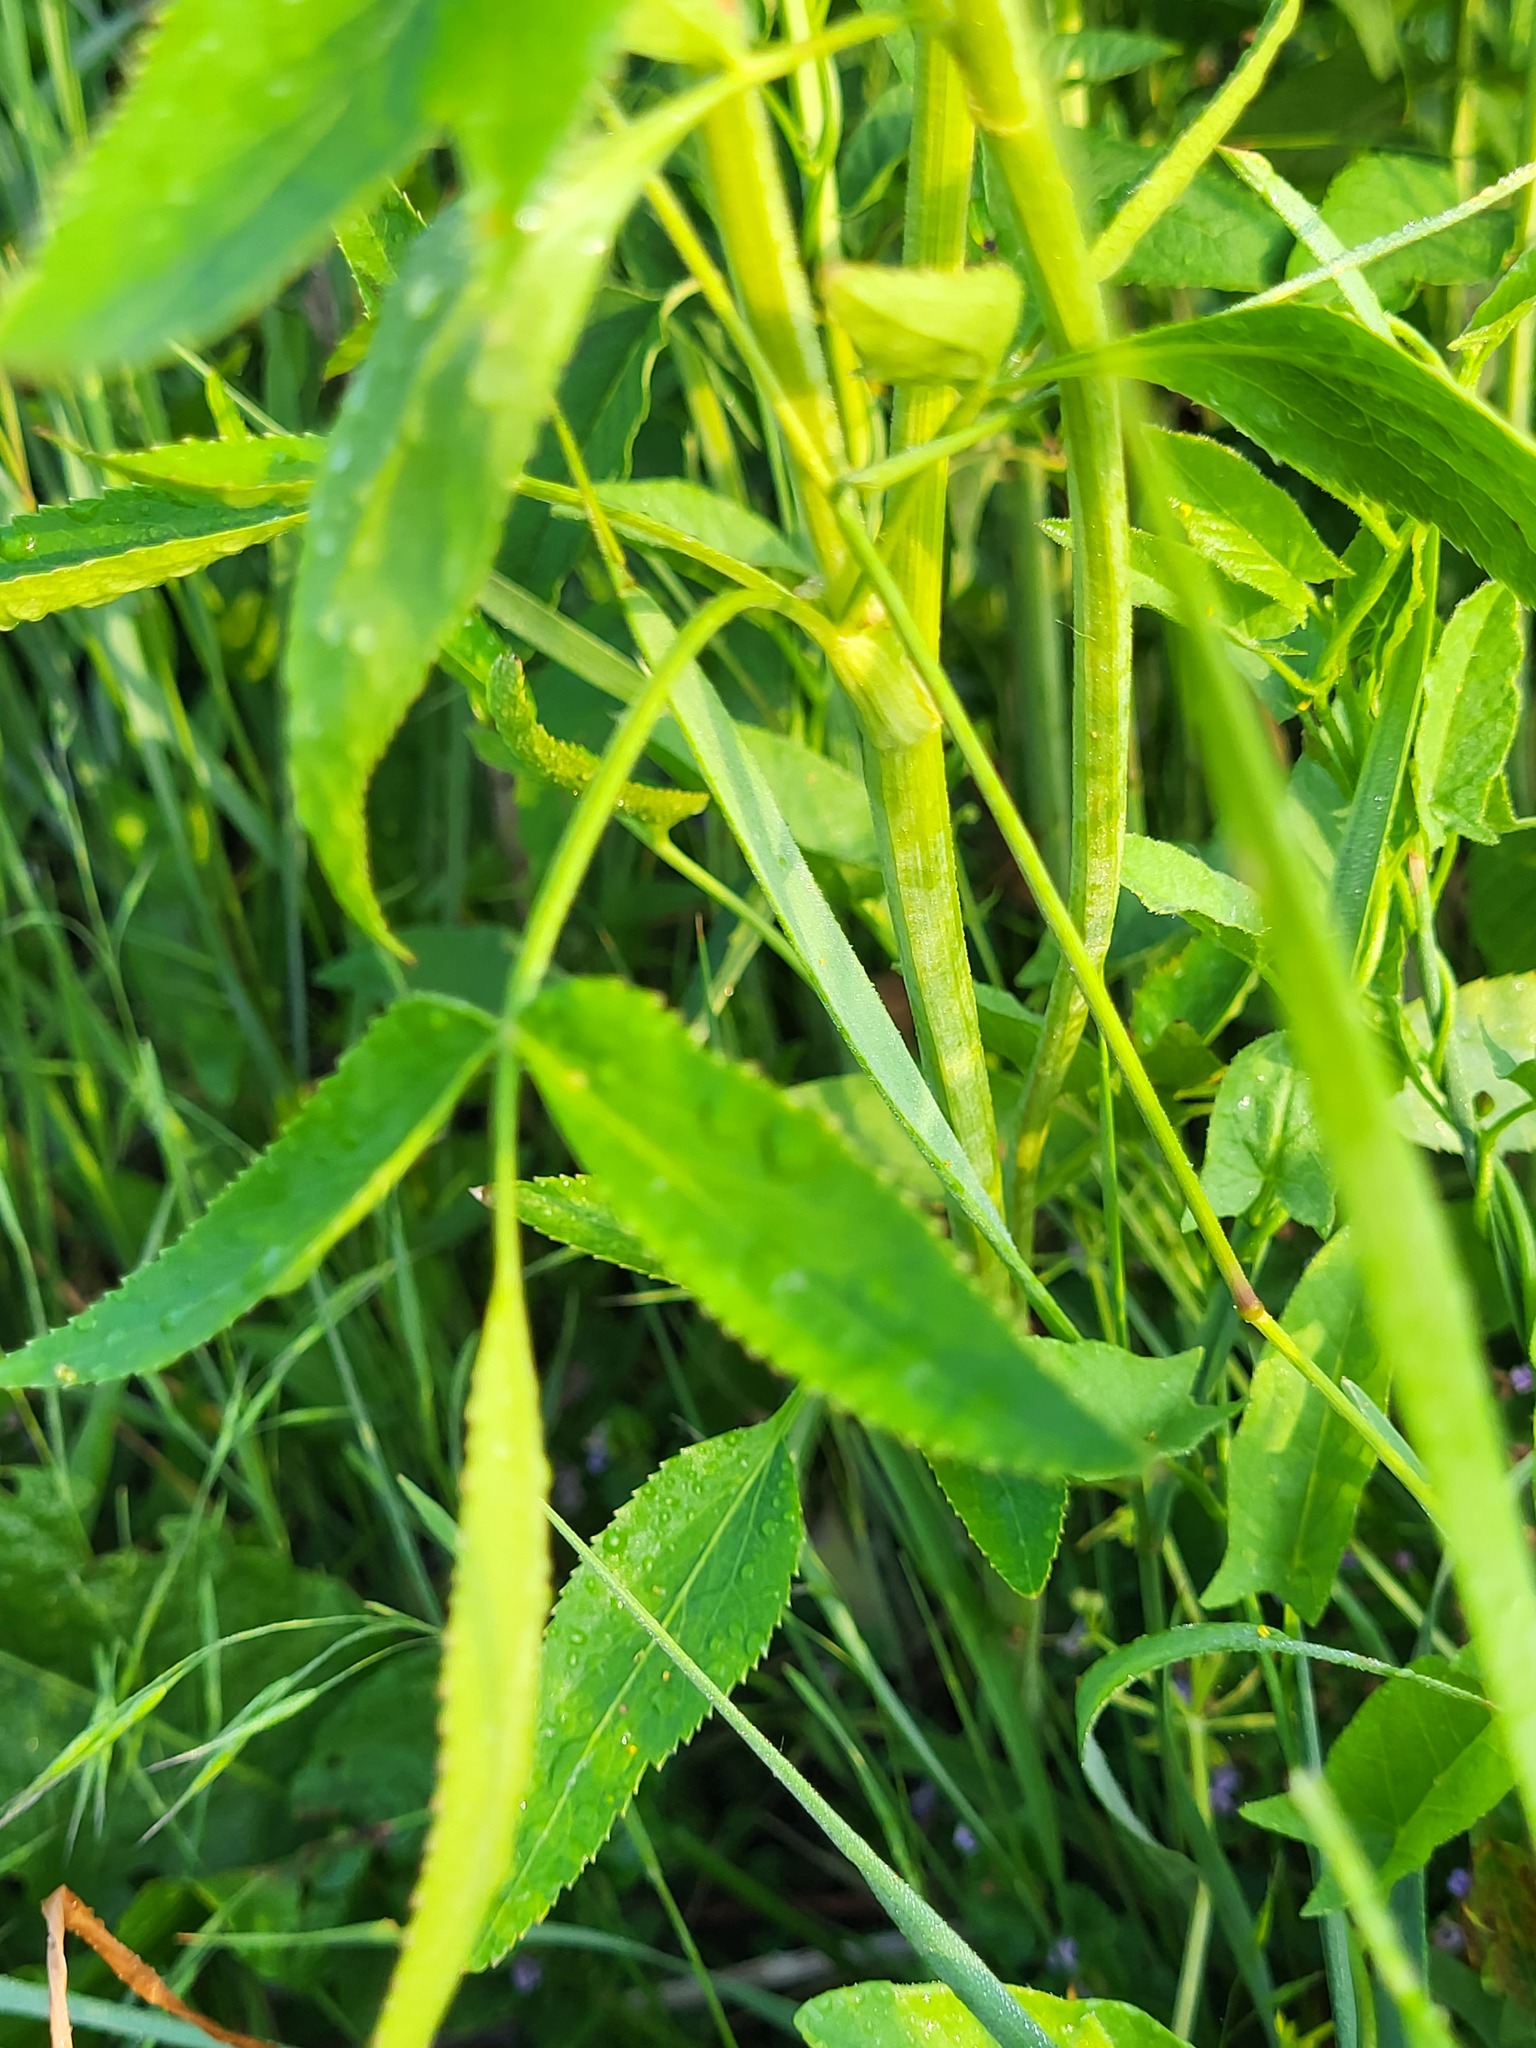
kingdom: Plantae
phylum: Tracheophyta
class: Magnoliopsida
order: Apiales
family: Apiaceae
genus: Zizia
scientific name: Zizia aurea
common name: Golden alexanders
